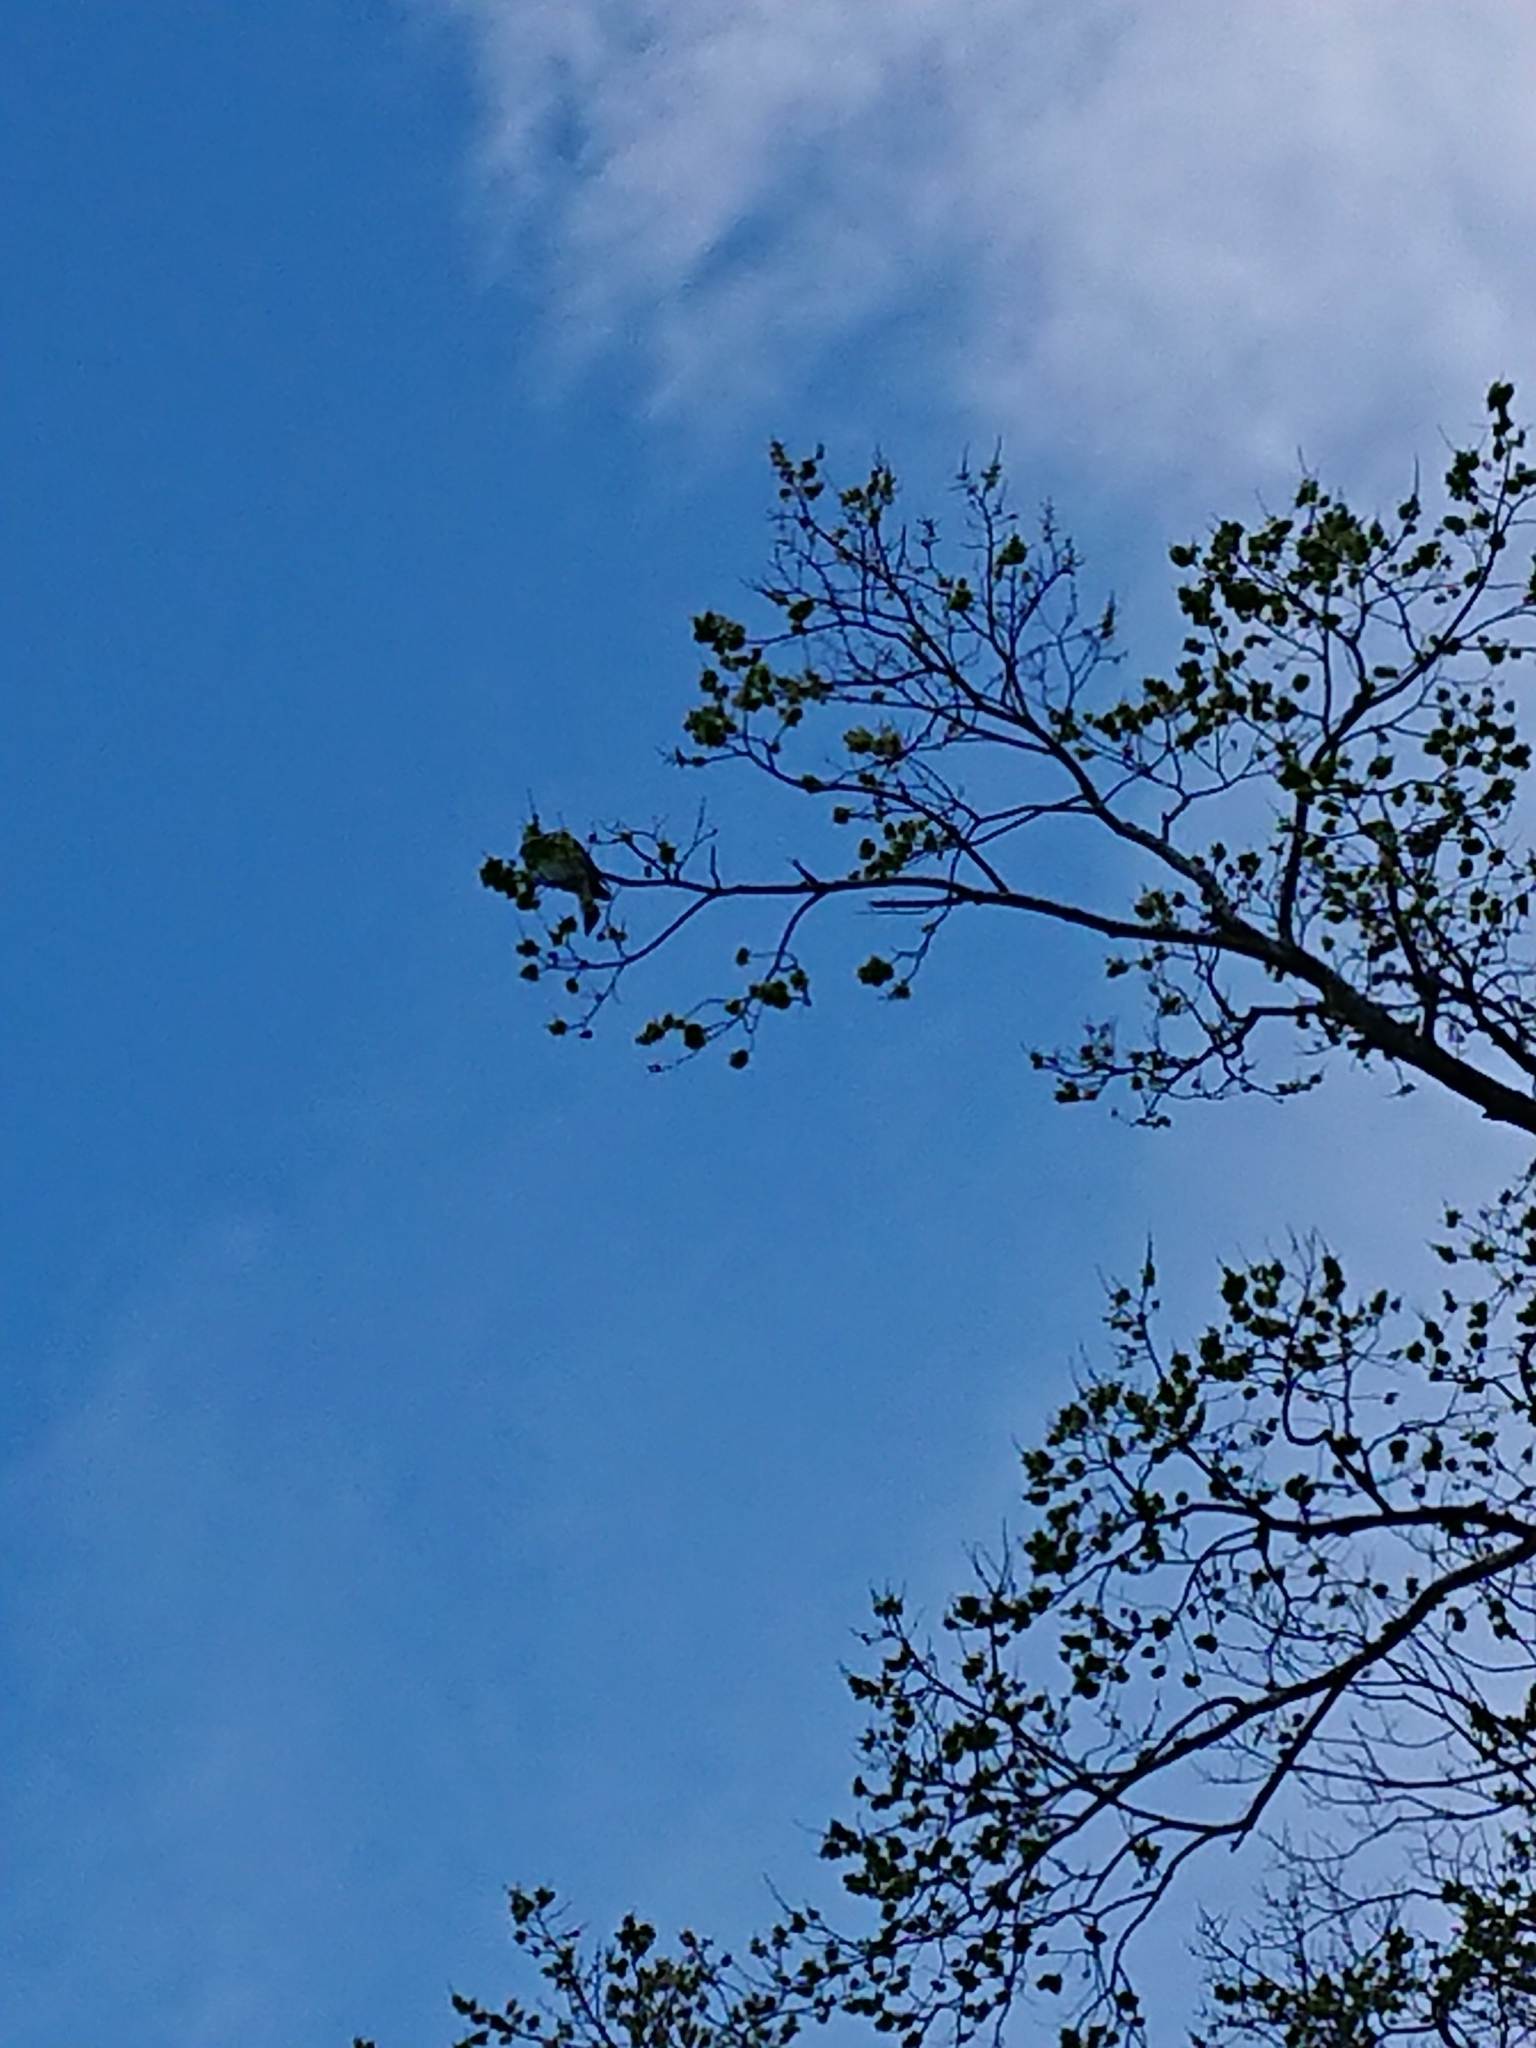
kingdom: Animalia
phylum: Chordata
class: Aves
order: Columbiformes
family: Columbidae
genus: Hemiphaga
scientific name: Hemiphaga novaeseelandiae
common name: New zealand pigeon
